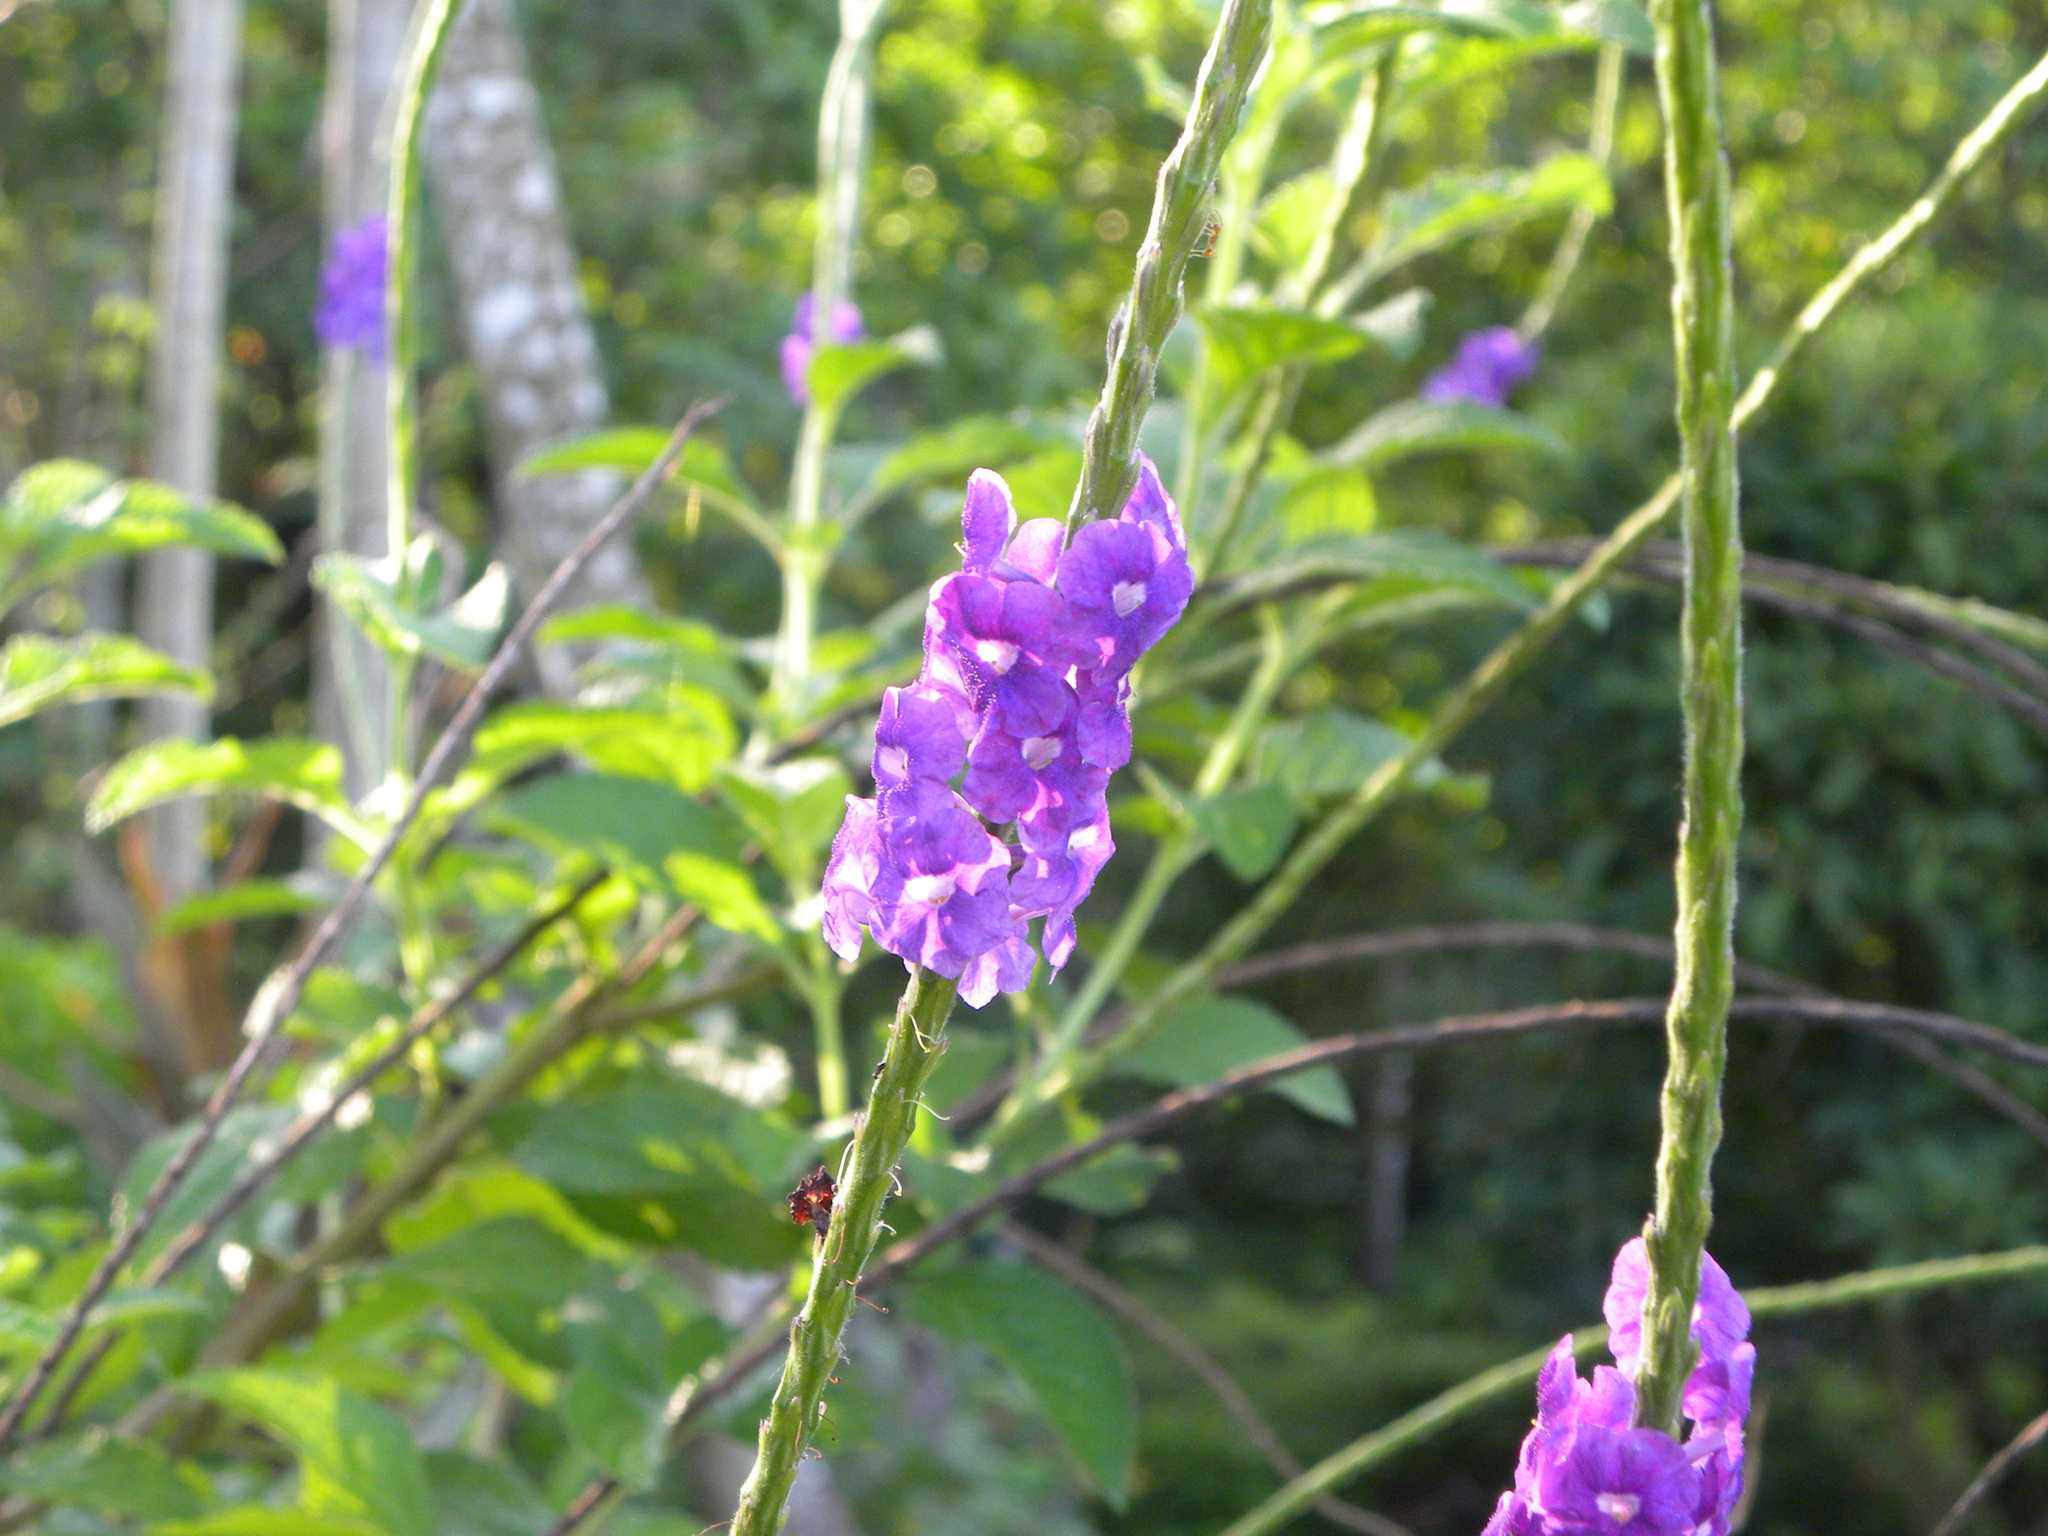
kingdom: Plantae
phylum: Tracheophyta
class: Magnoliopsida
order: Lamiales
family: Verbenaceae
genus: Stachytarpheta
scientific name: Stachytarpheta
